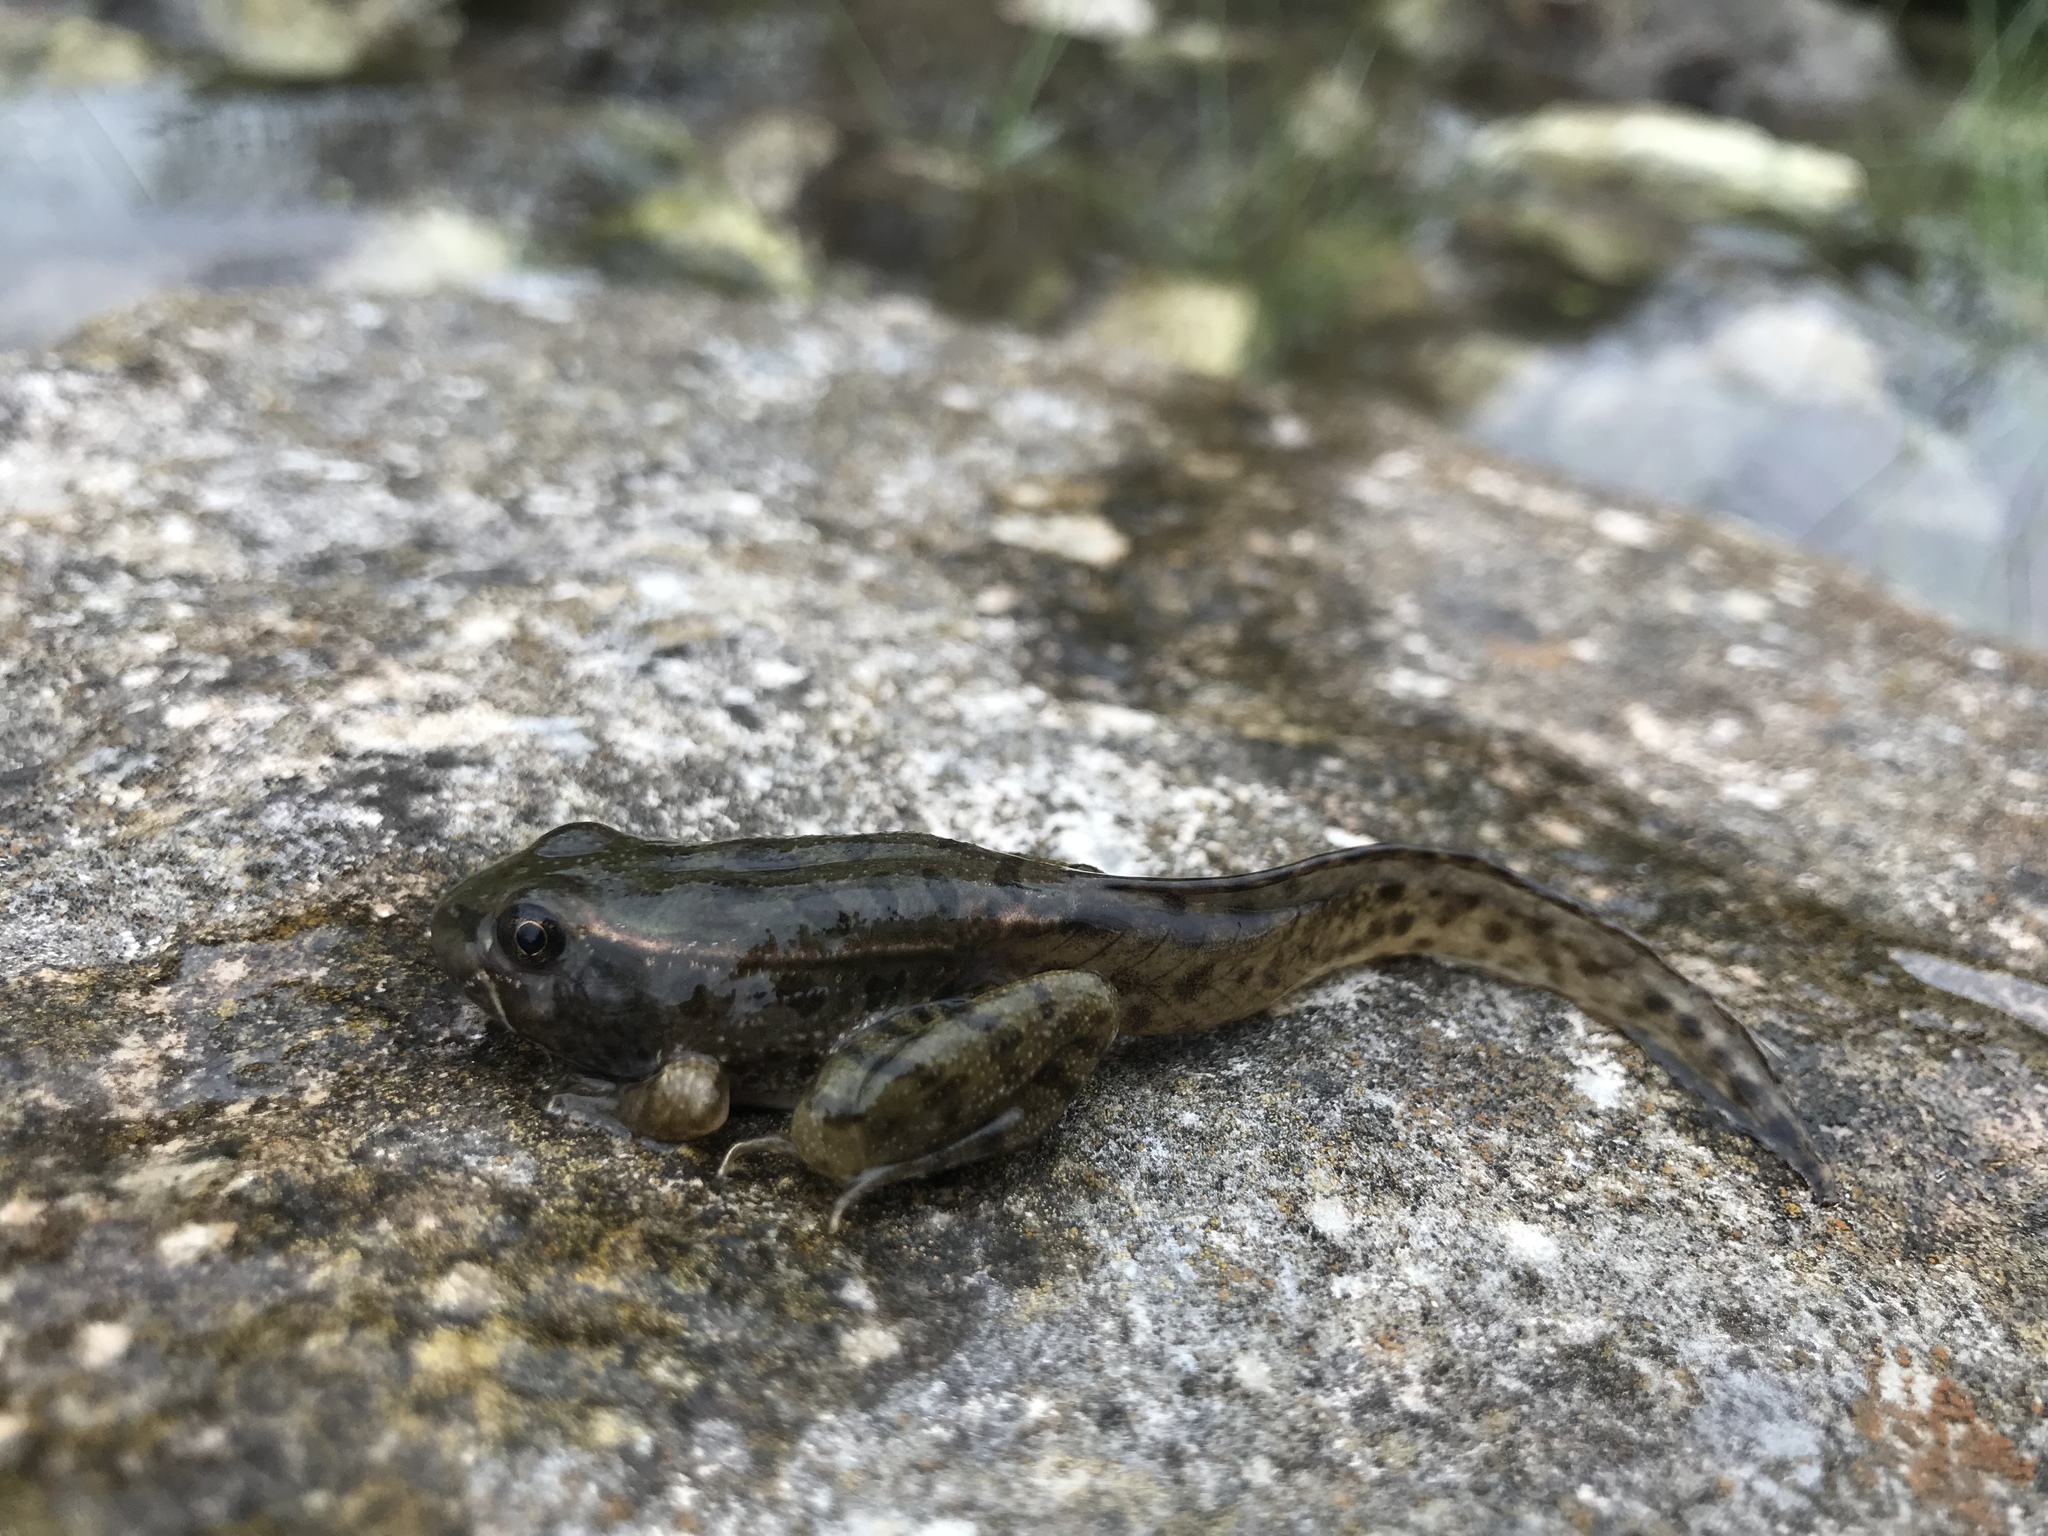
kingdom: Animalia
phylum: Chordata
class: Amphibia
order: Anura
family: Ranidae
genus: Lithobates
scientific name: Lithobates berlandieri
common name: Rio grande leopard frog
